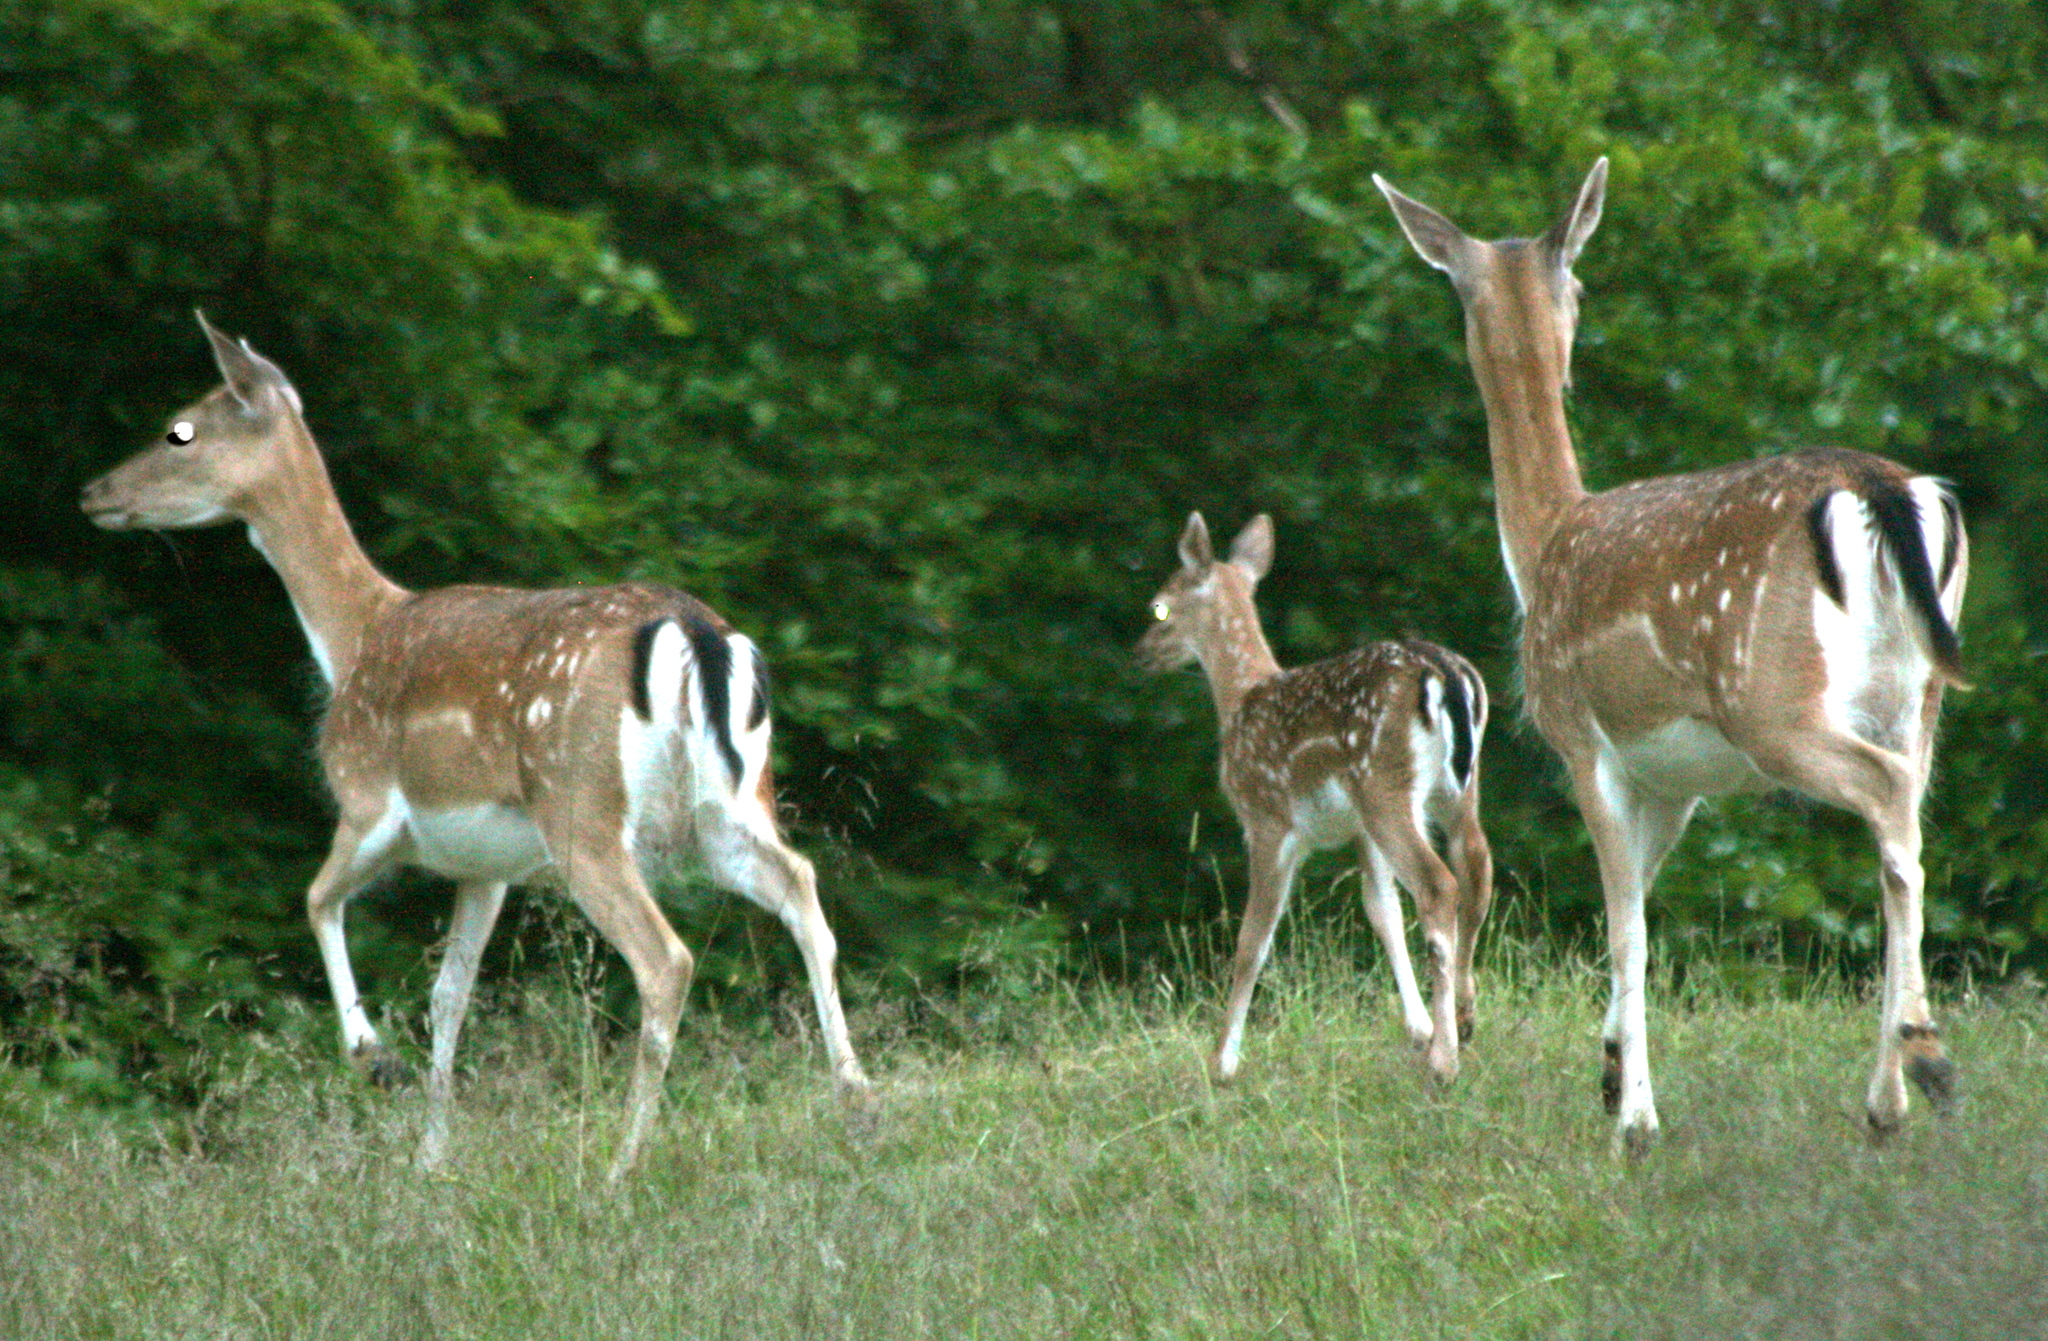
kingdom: Animalia
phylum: Chordata
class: Mammalia
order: Artiodactyla
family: Cervidae
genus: Dama
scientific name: Dama dama
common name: Fallow deer
